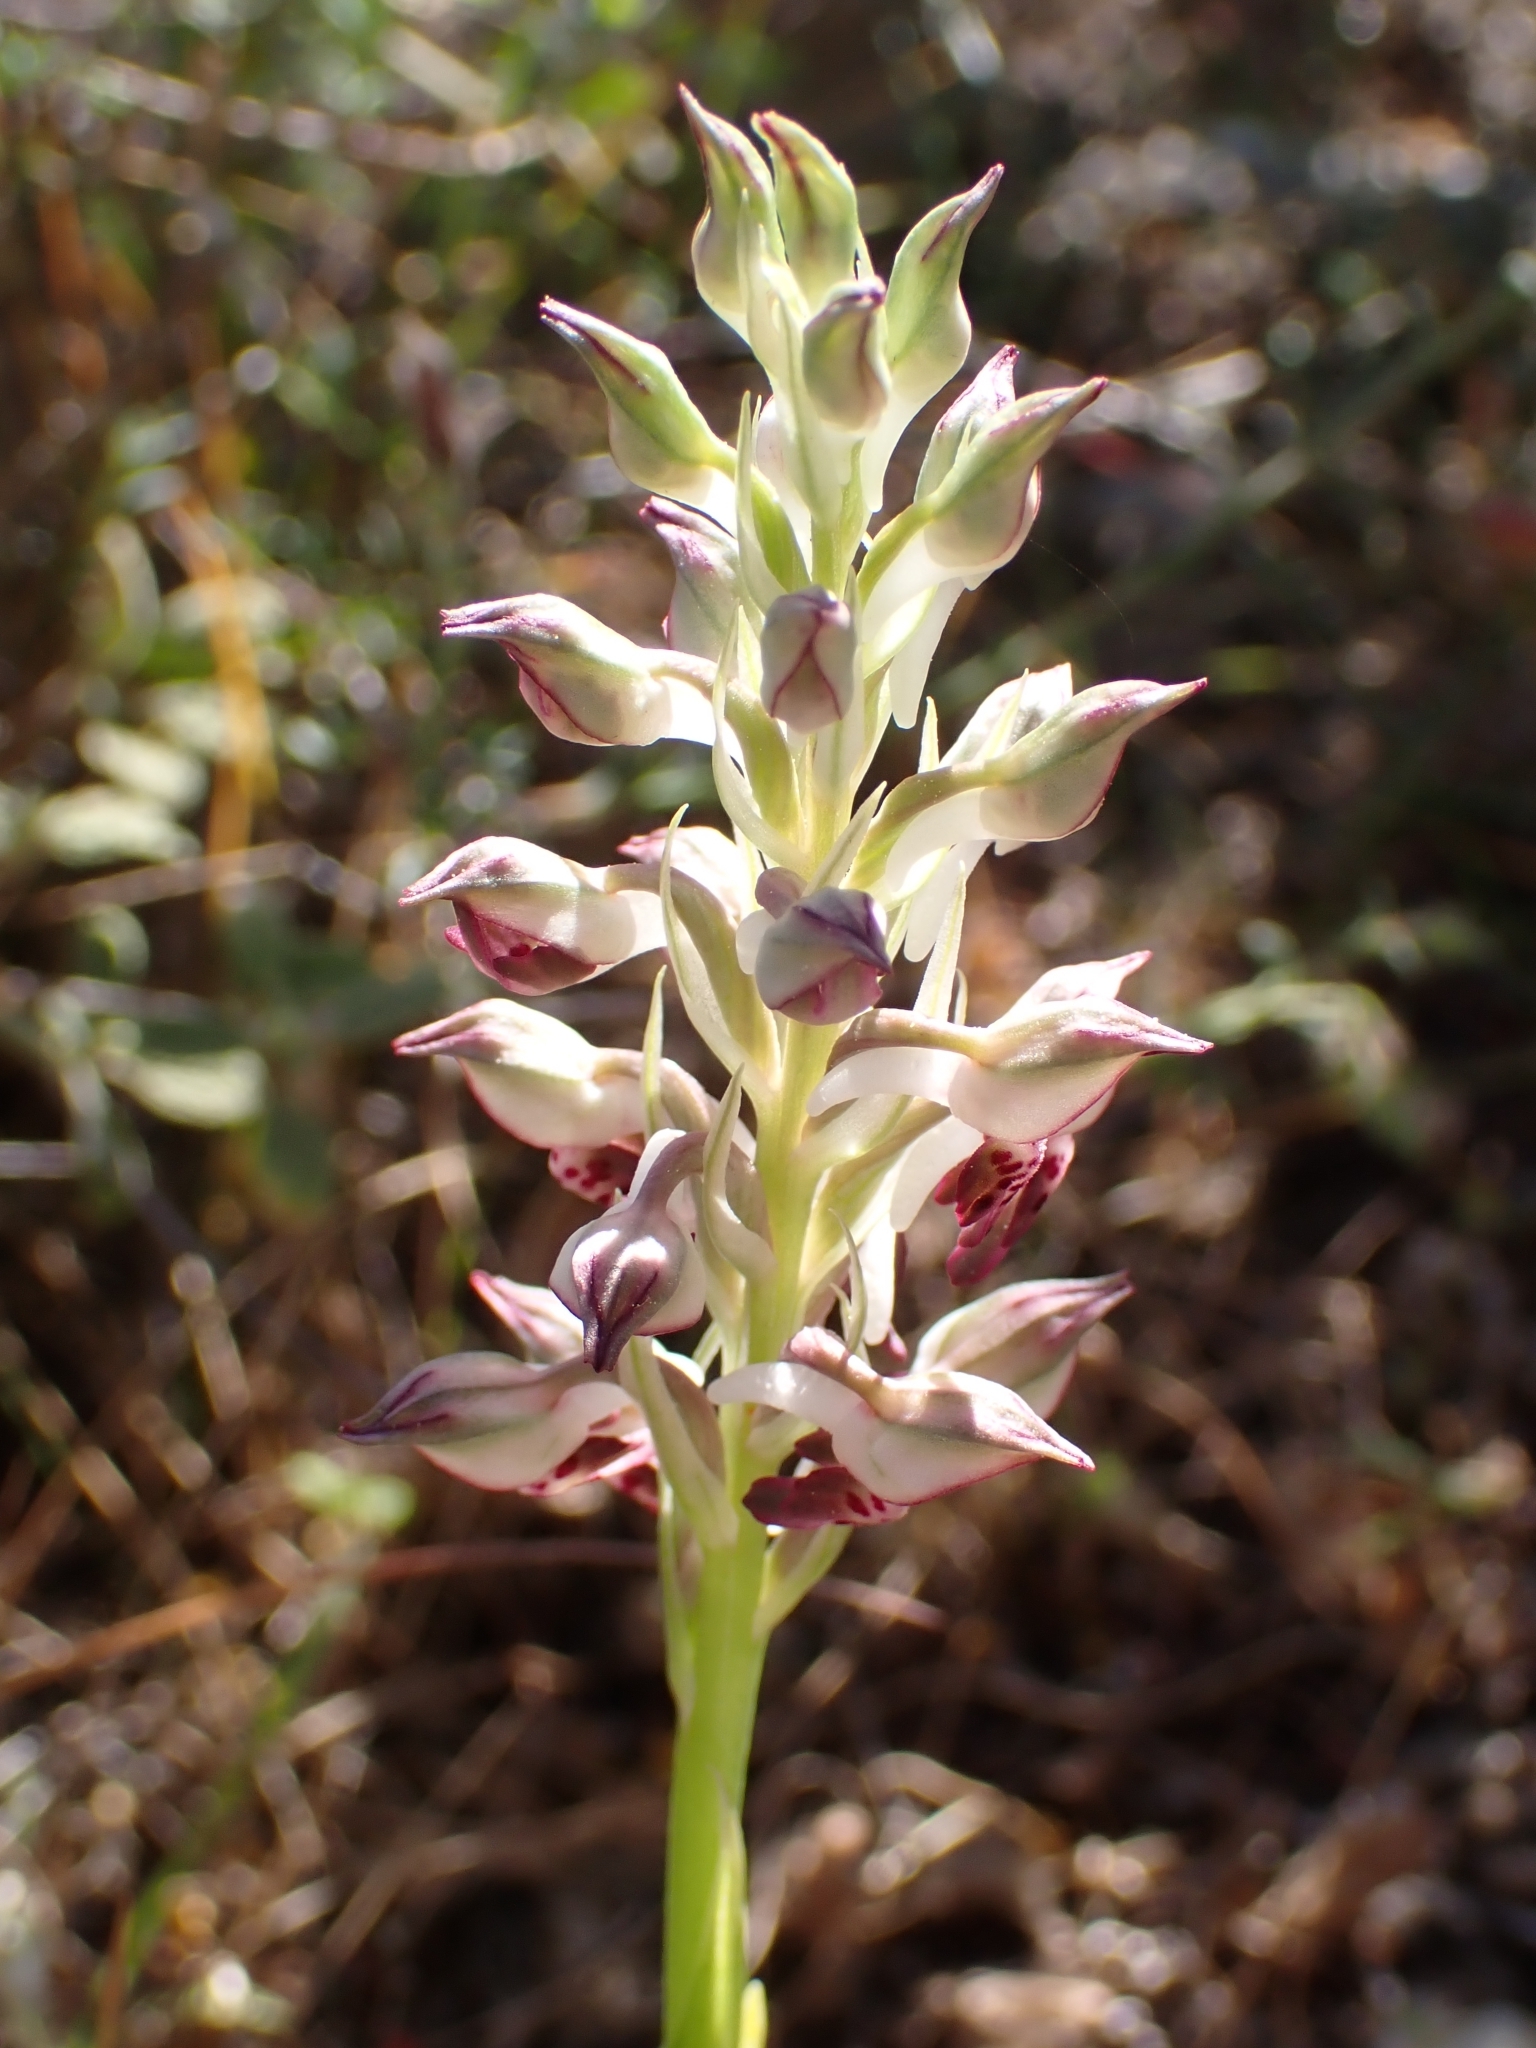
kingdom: Plantae
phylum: Tracheophyta
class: Liliopsida
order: Asparagales
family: Orchidaceae
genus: Anacamptis
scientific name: Anacamptis coriophora
